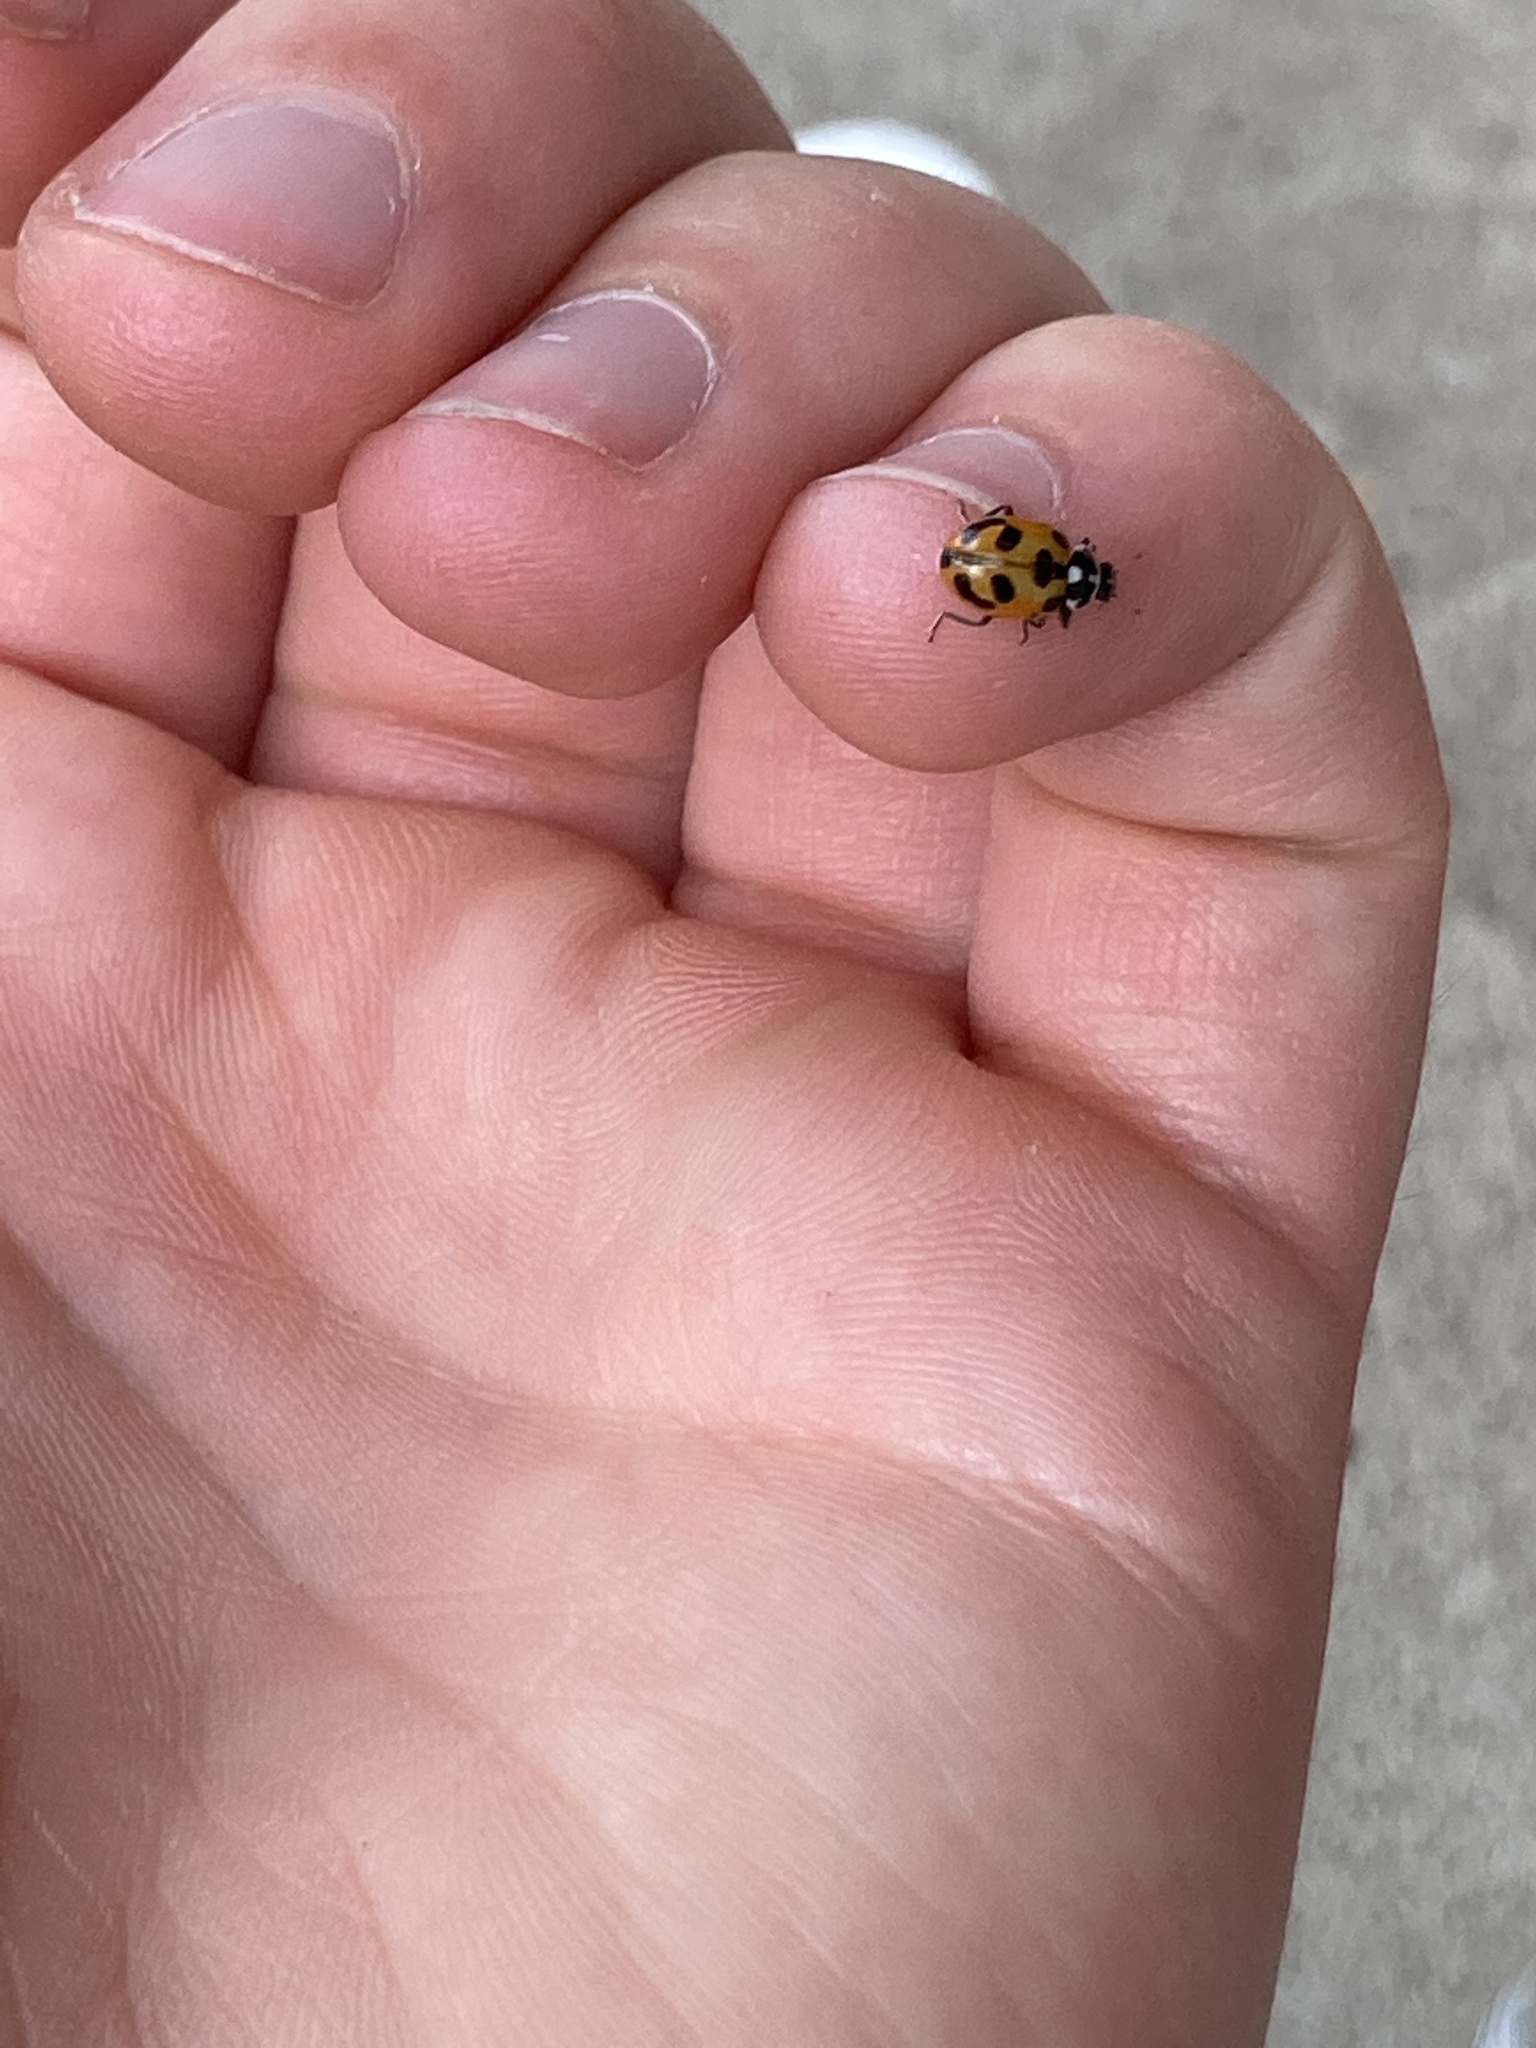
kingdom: Animalia
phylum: Arthropoda
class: Insecta
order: Coleoptera
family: Coccinellidae
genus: Hippodamia
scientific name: Hippodamia parenthesis
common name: Parenthesis lady beetle
